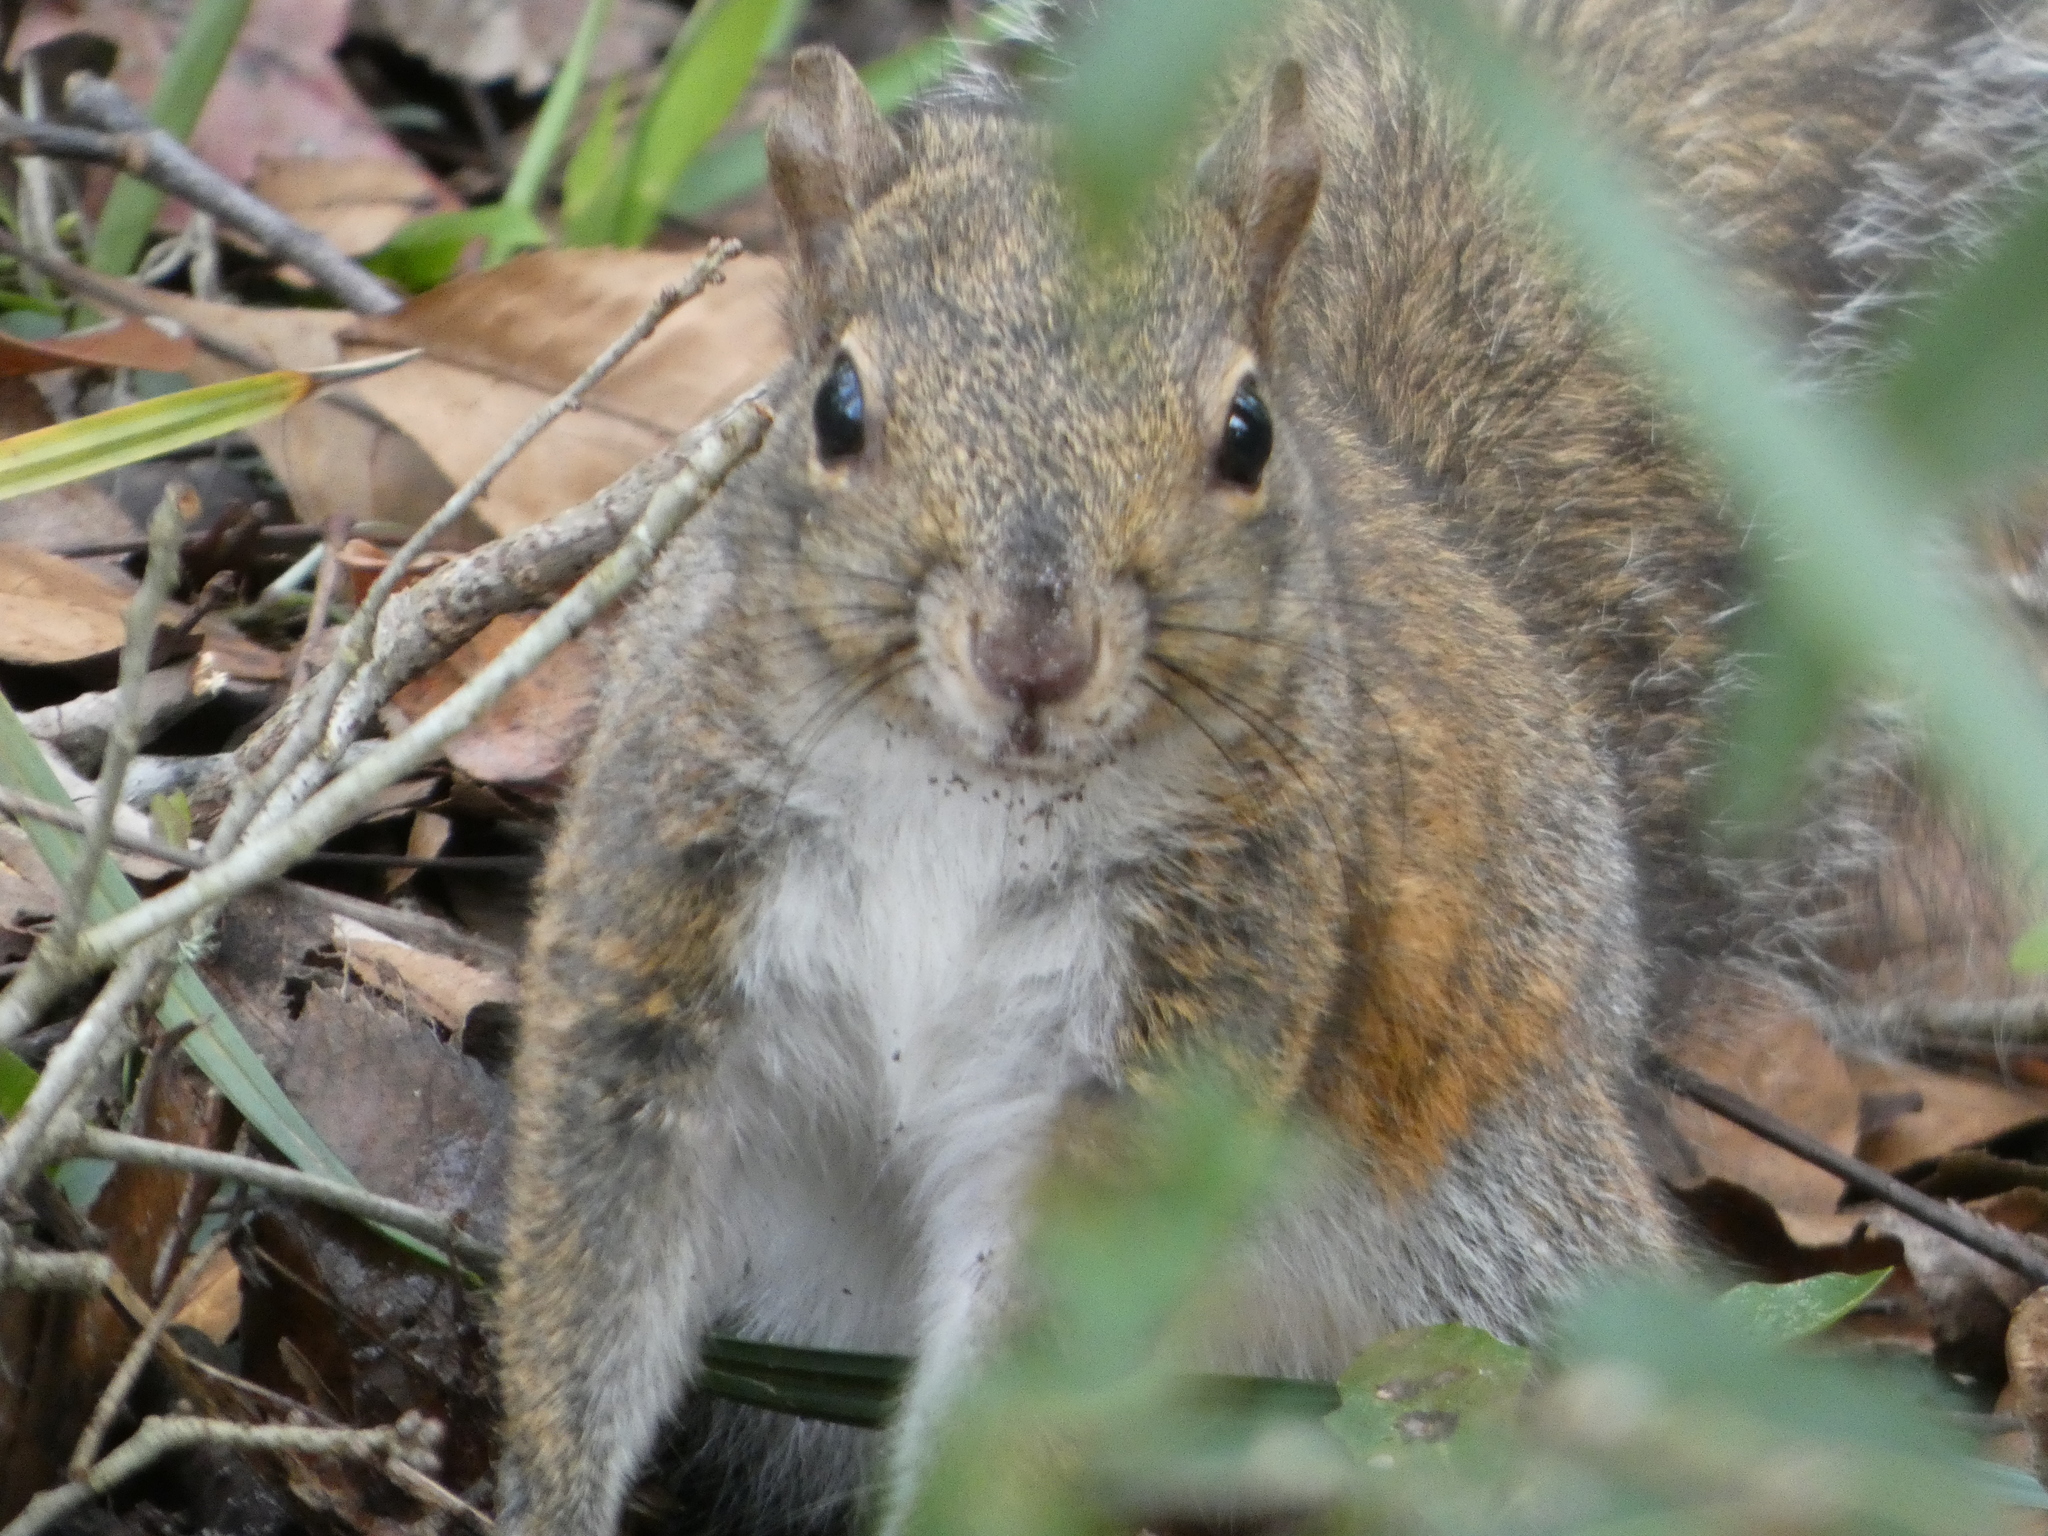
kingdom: Animalia
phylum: Chordata
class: Mammalia
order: Rodentia
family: Sciuridae
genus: Sciurus
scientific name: Sciurus carolinensis
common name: Eastern gray squirrel
